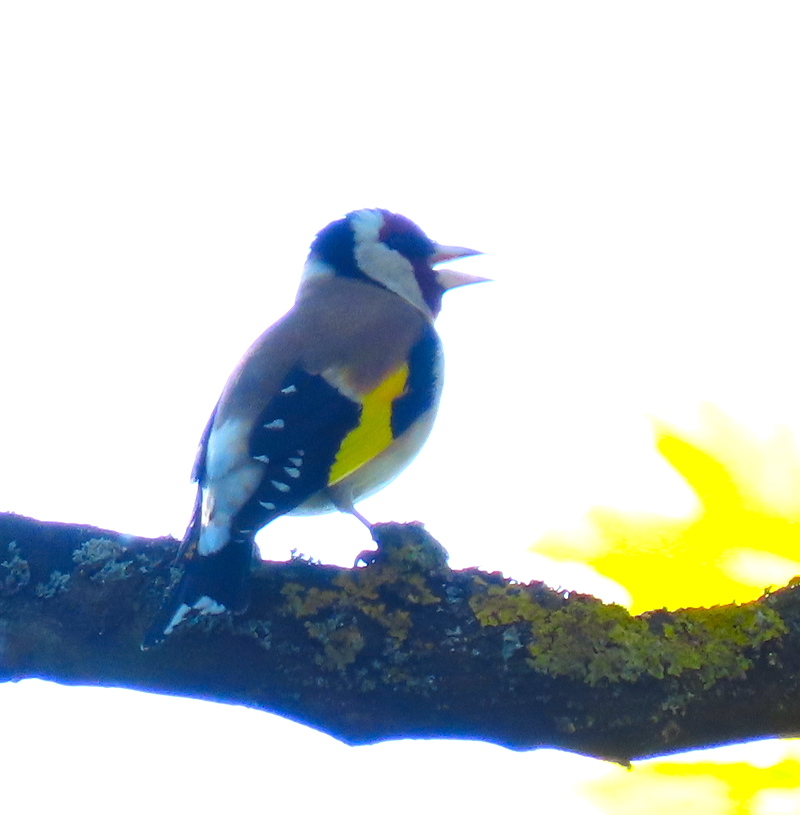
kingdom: Animalia
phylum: Chordata
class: Aves
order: Passeriformes
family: Fringillidae
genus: Carduelis
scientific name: Carduelis carduelis
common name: European goldfinch
